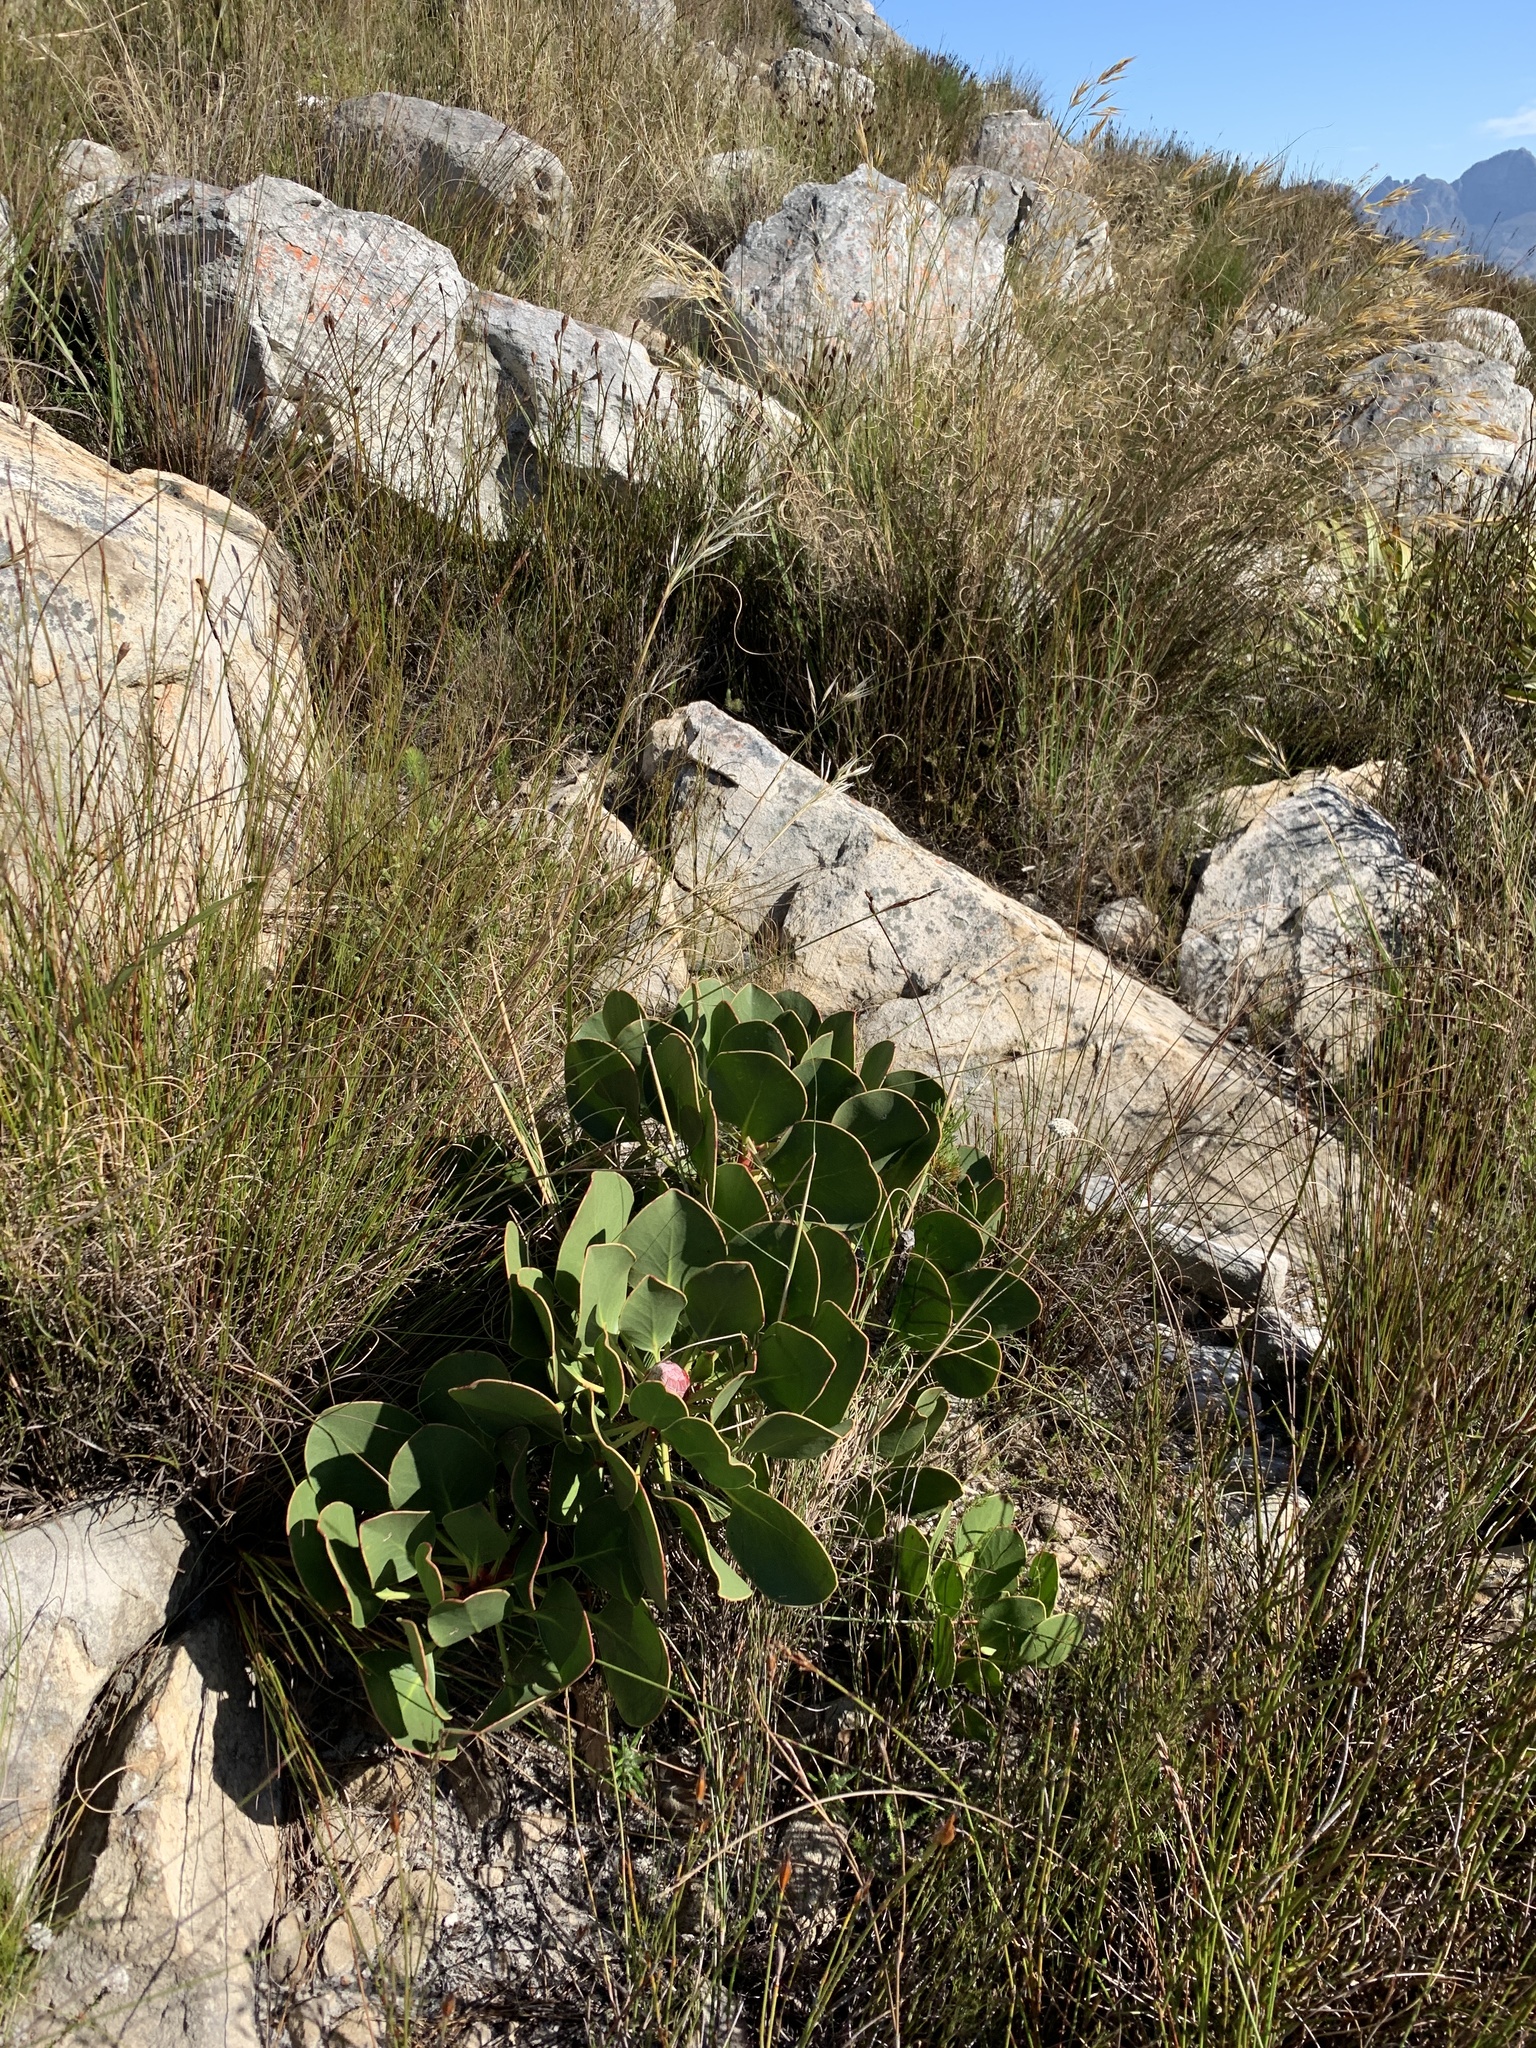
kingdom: Plantae
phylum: Tracheophyta
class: Magnoliopsida
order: Proteales
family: Proteaceae
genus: Protea
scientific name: Protea cynaroides
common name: King protea
